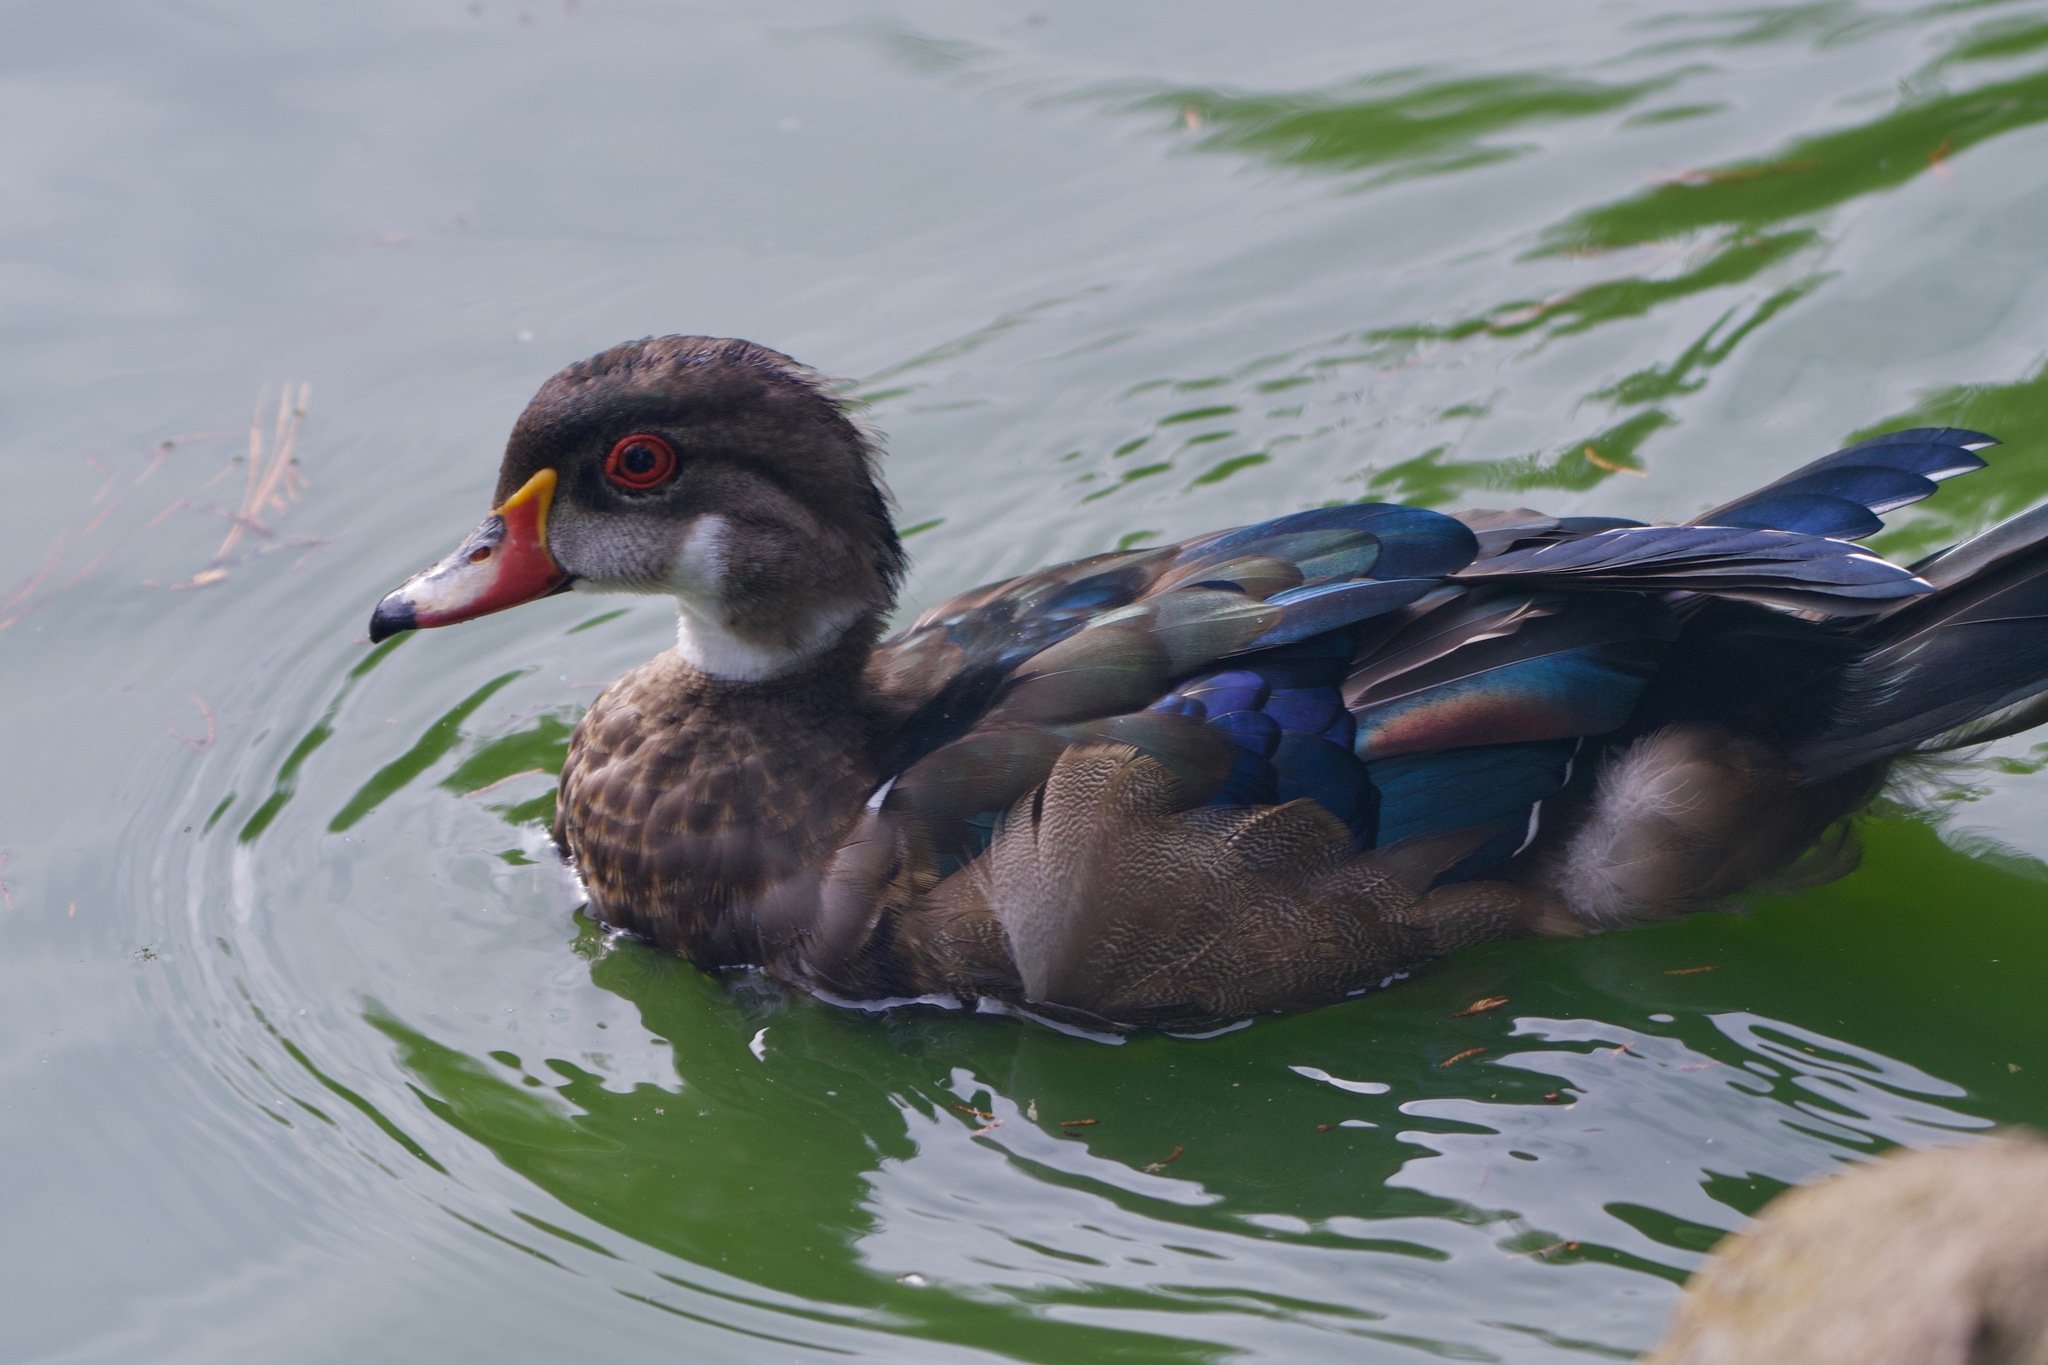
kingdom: Animalia
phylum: Chordata
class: Aves
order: Anseriformes
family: Anatidae
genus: Aix
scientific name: Aix sponsa
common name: Wood duck
